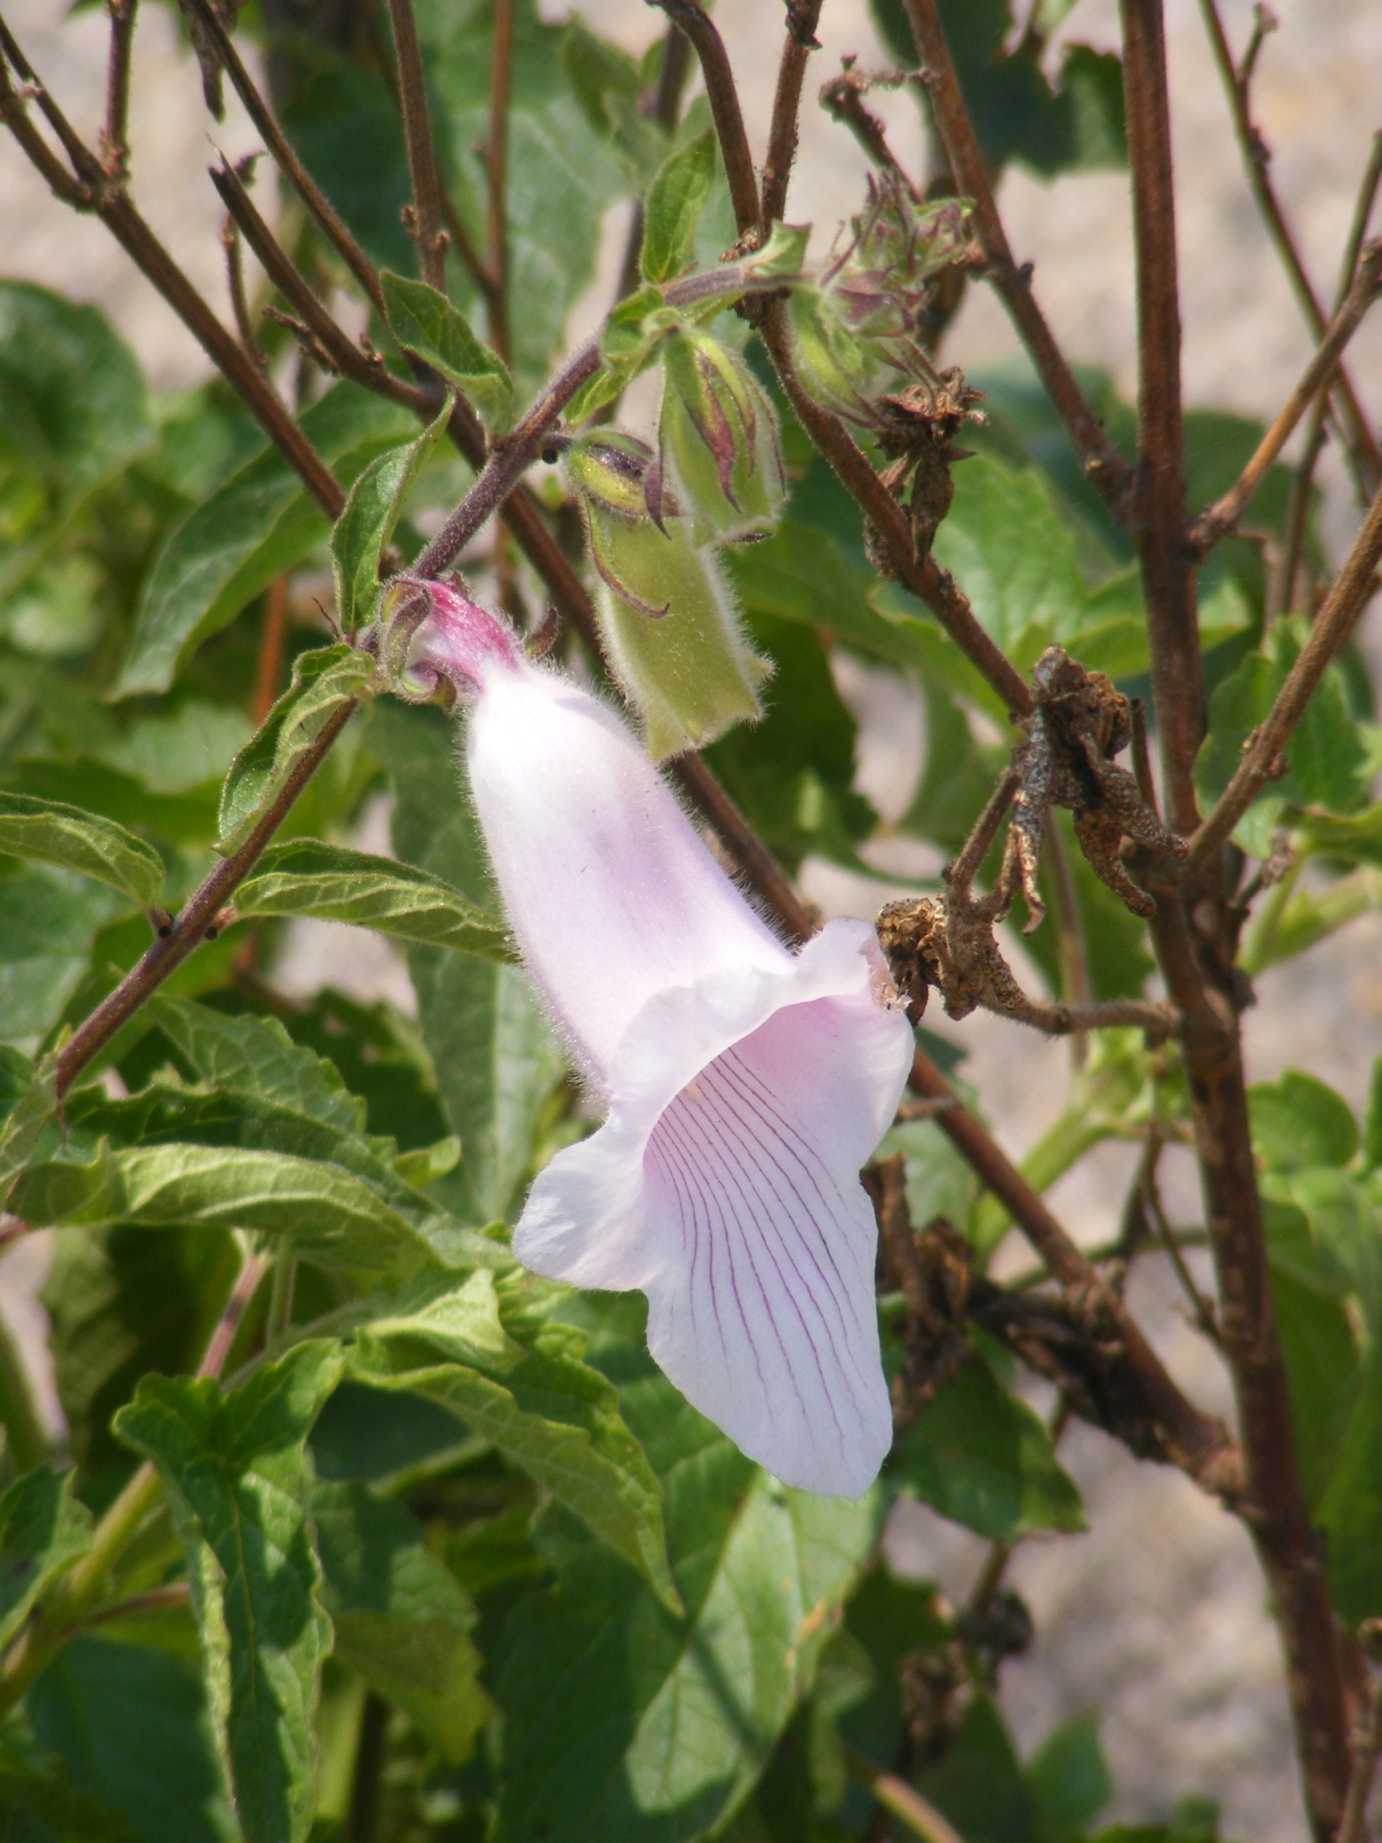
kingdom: Plantae
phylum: Tracheophyta
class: Magnoliopsida
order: Lamiales
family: Pedaliaceae
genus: Sesamum
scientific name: Sesamum trilobum
